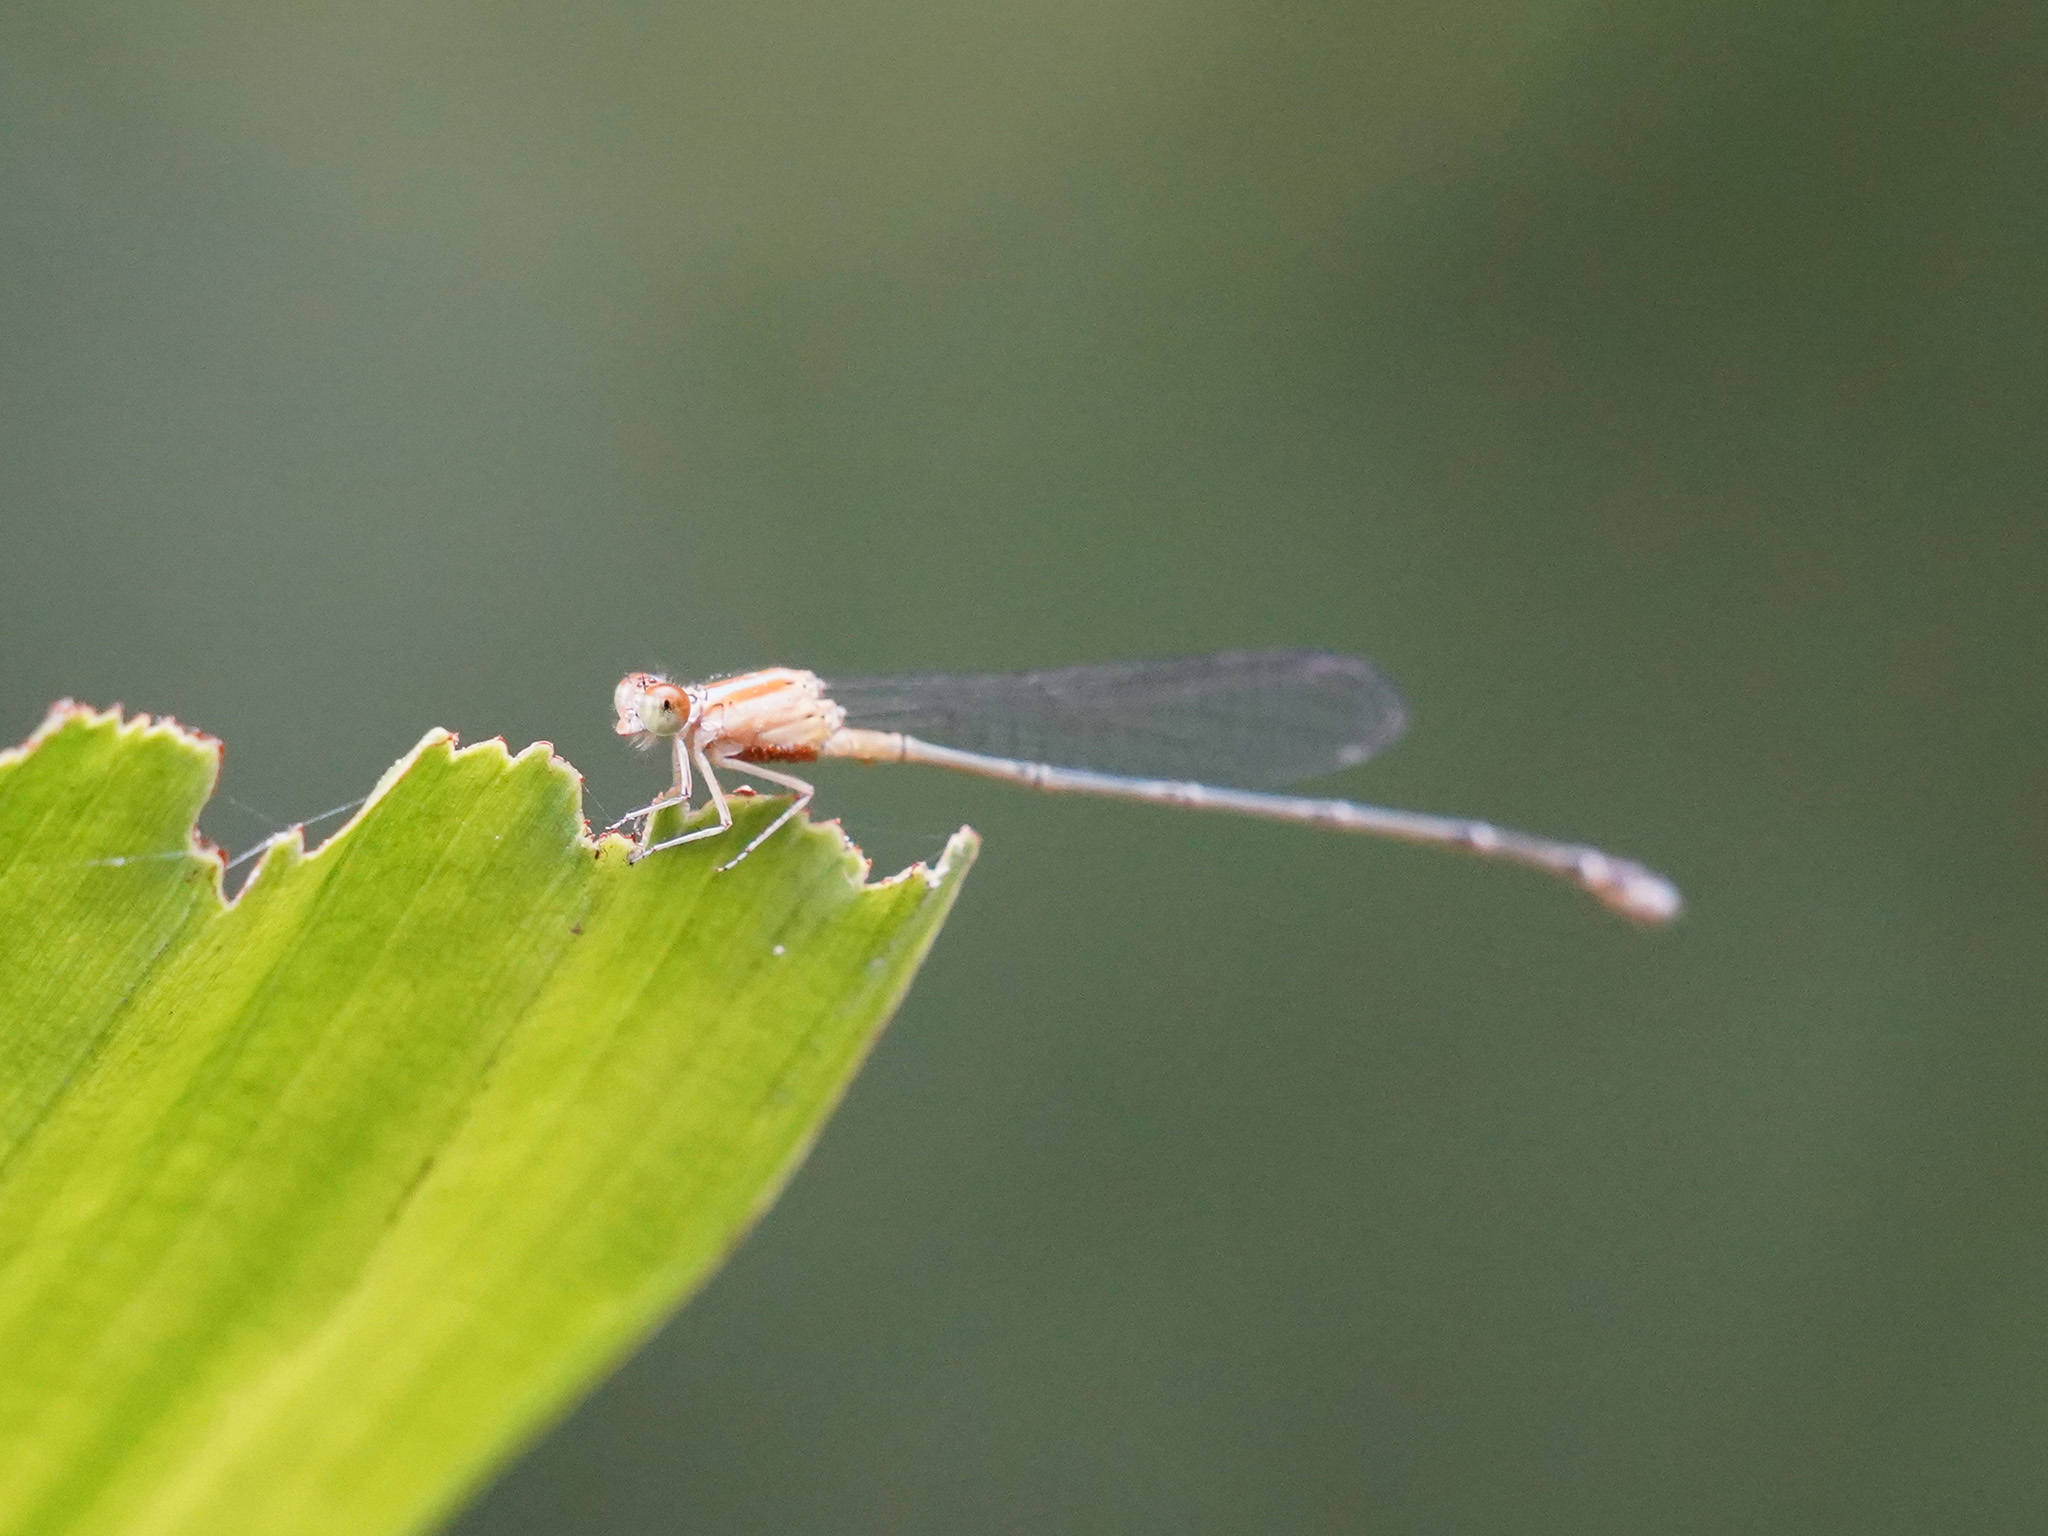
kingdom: Animalia
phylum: Arthropoda
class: Insecta
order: Odonata
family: Coenagrionidae
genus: Pseudagrion
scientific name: Pseudagrion microcephalum
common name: Blue riverdamsel
